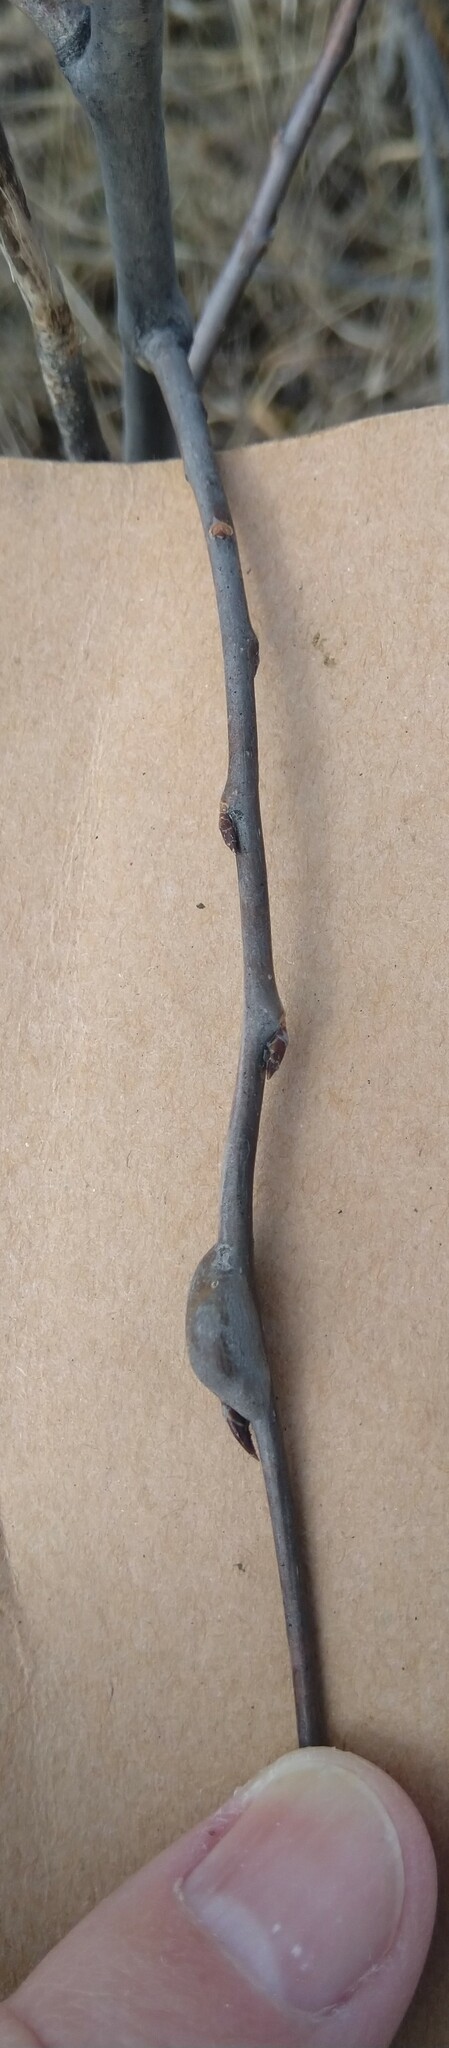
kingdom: Animalia
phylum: Arthropoda
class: Insecta
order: Diptera
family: Agromyzidae
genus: Euhexomyza
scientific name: Euhexomyza schineri
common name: Poplar twiggall fly
